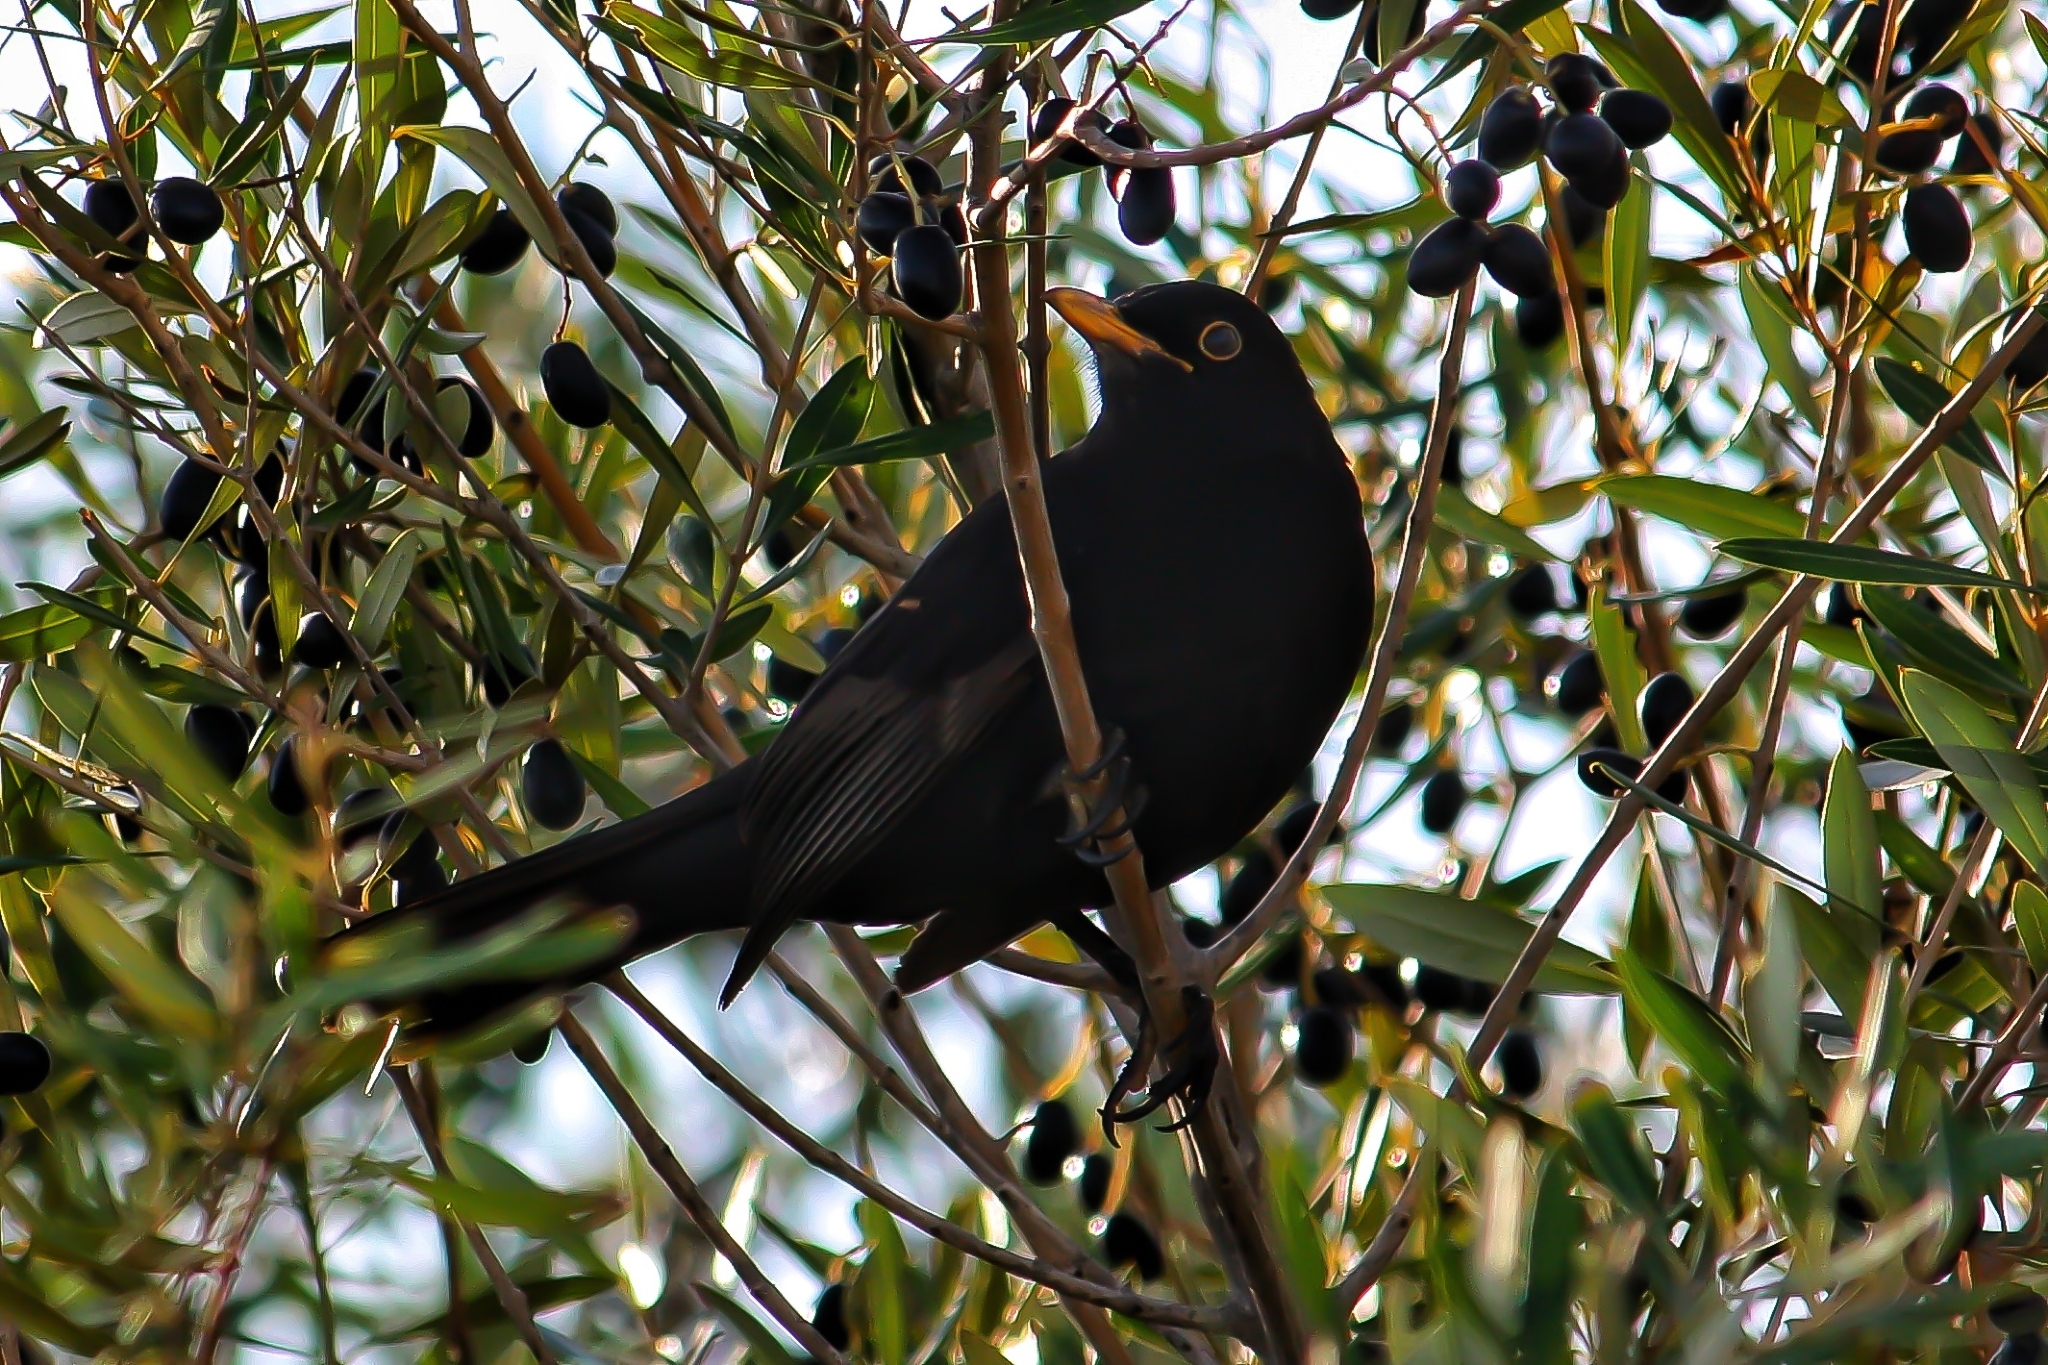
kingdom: Animalia
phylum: Chordata
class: Aves
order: Passeriformes
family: Turdidae
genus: Turdus
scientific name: Turdus merula
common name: Common blackbird
